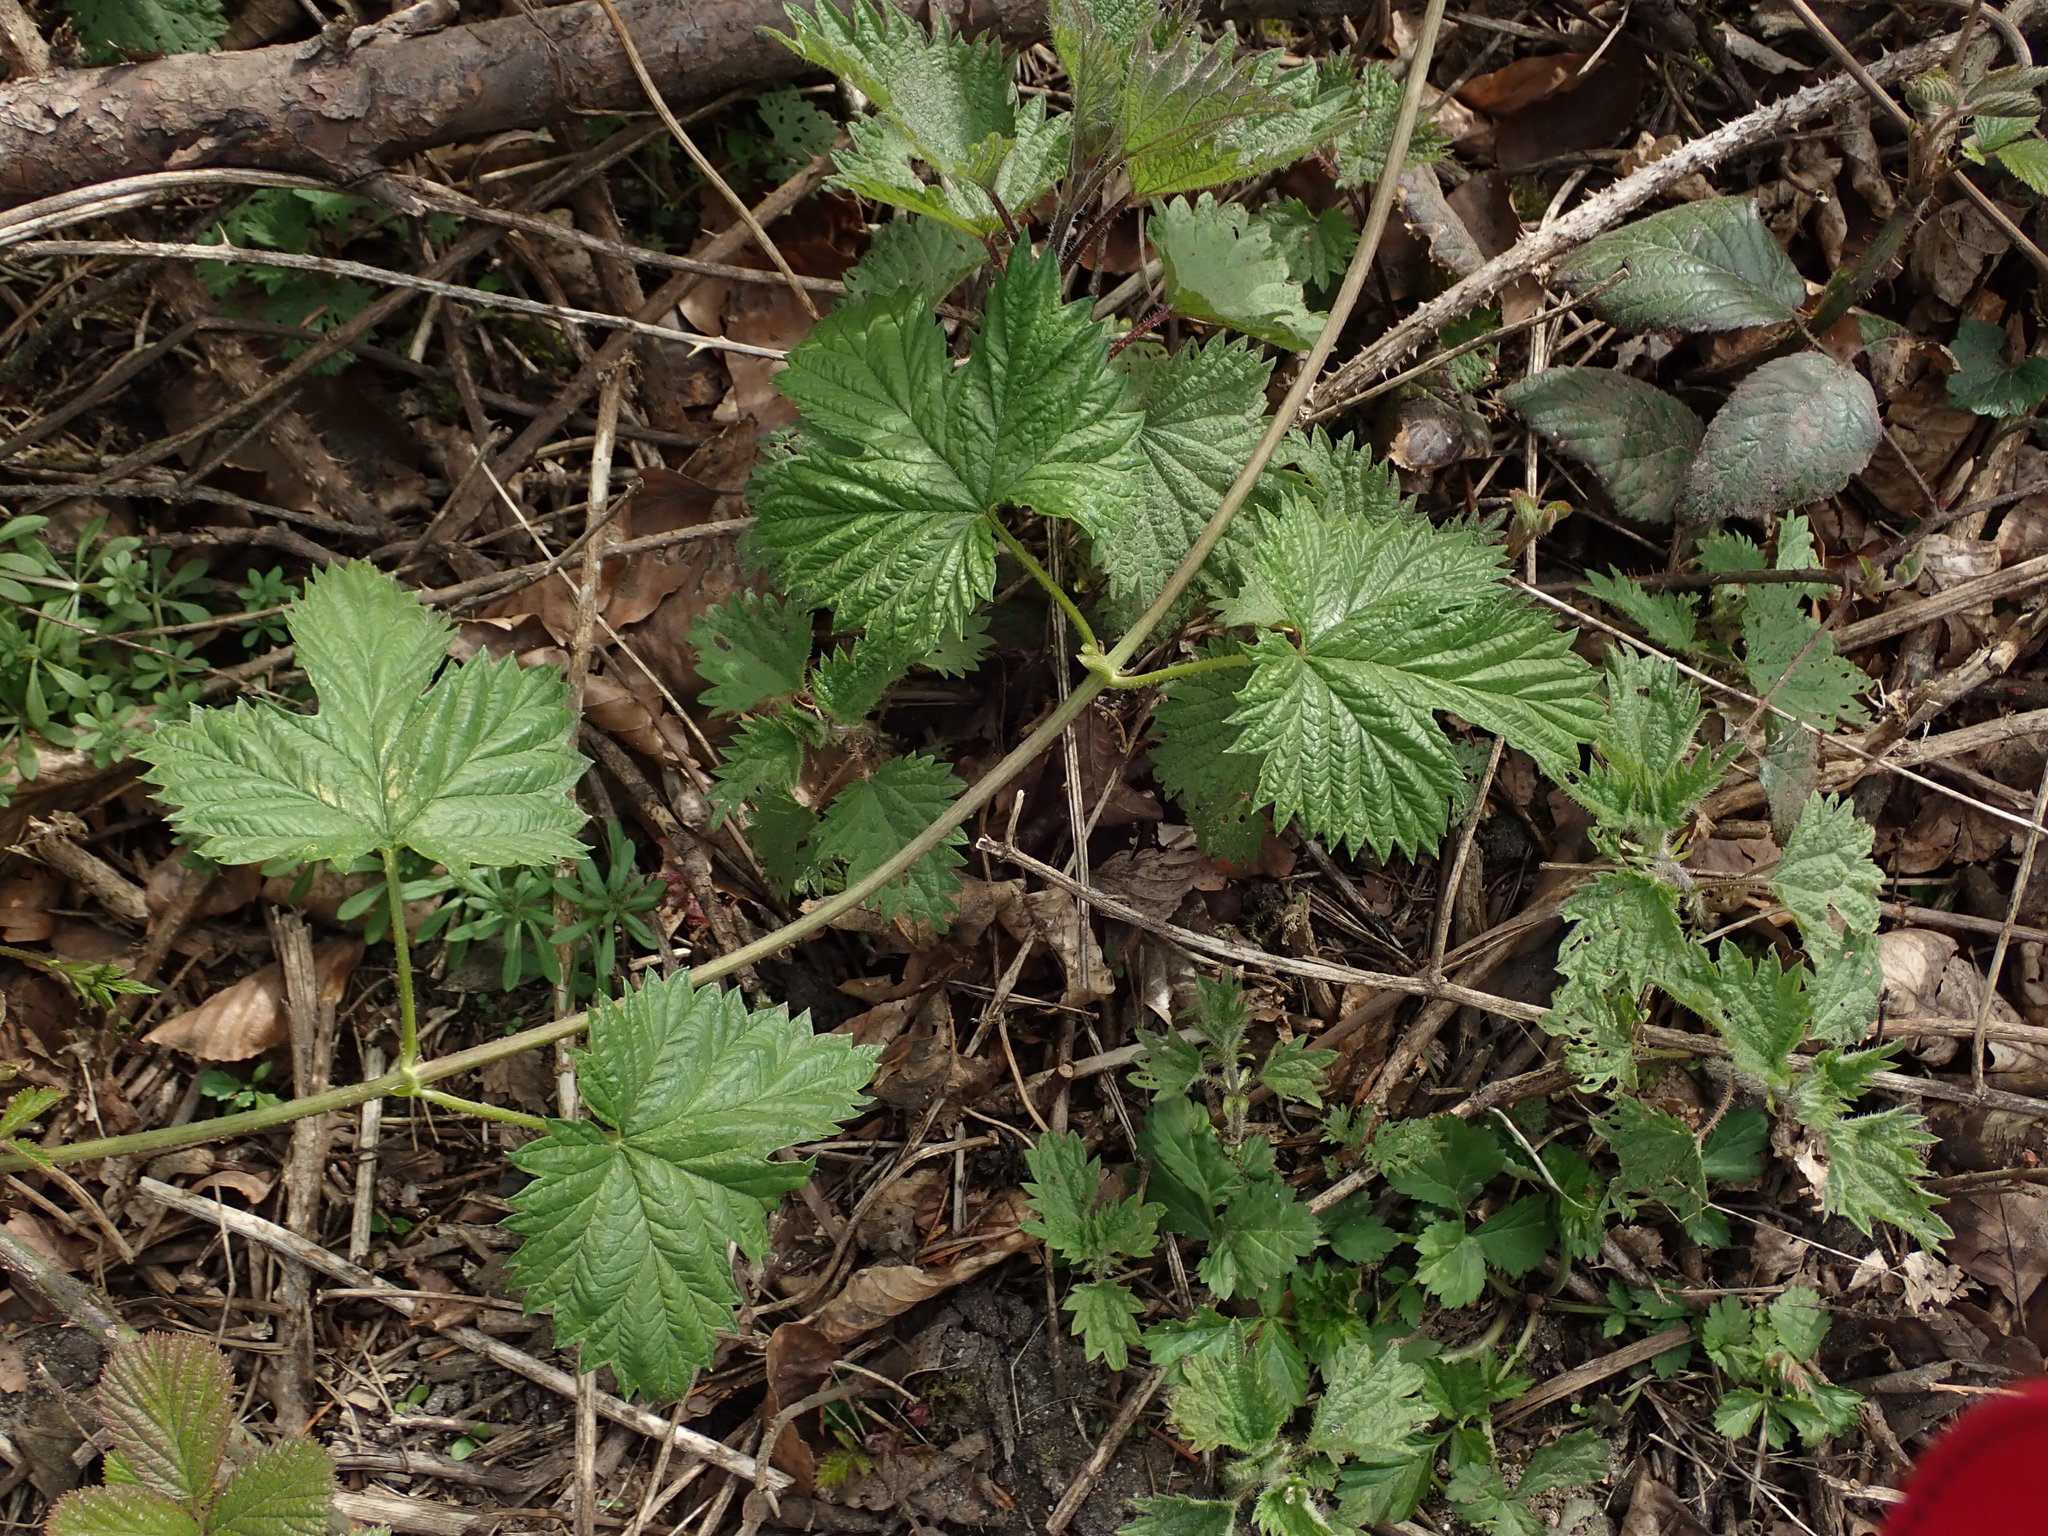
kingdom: Plantae
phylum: Tracheophyta
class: Magnoliopsida
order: Rosales
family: Cannabaceae
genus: Humulus
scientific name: Humulus lupulus
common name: Hop
